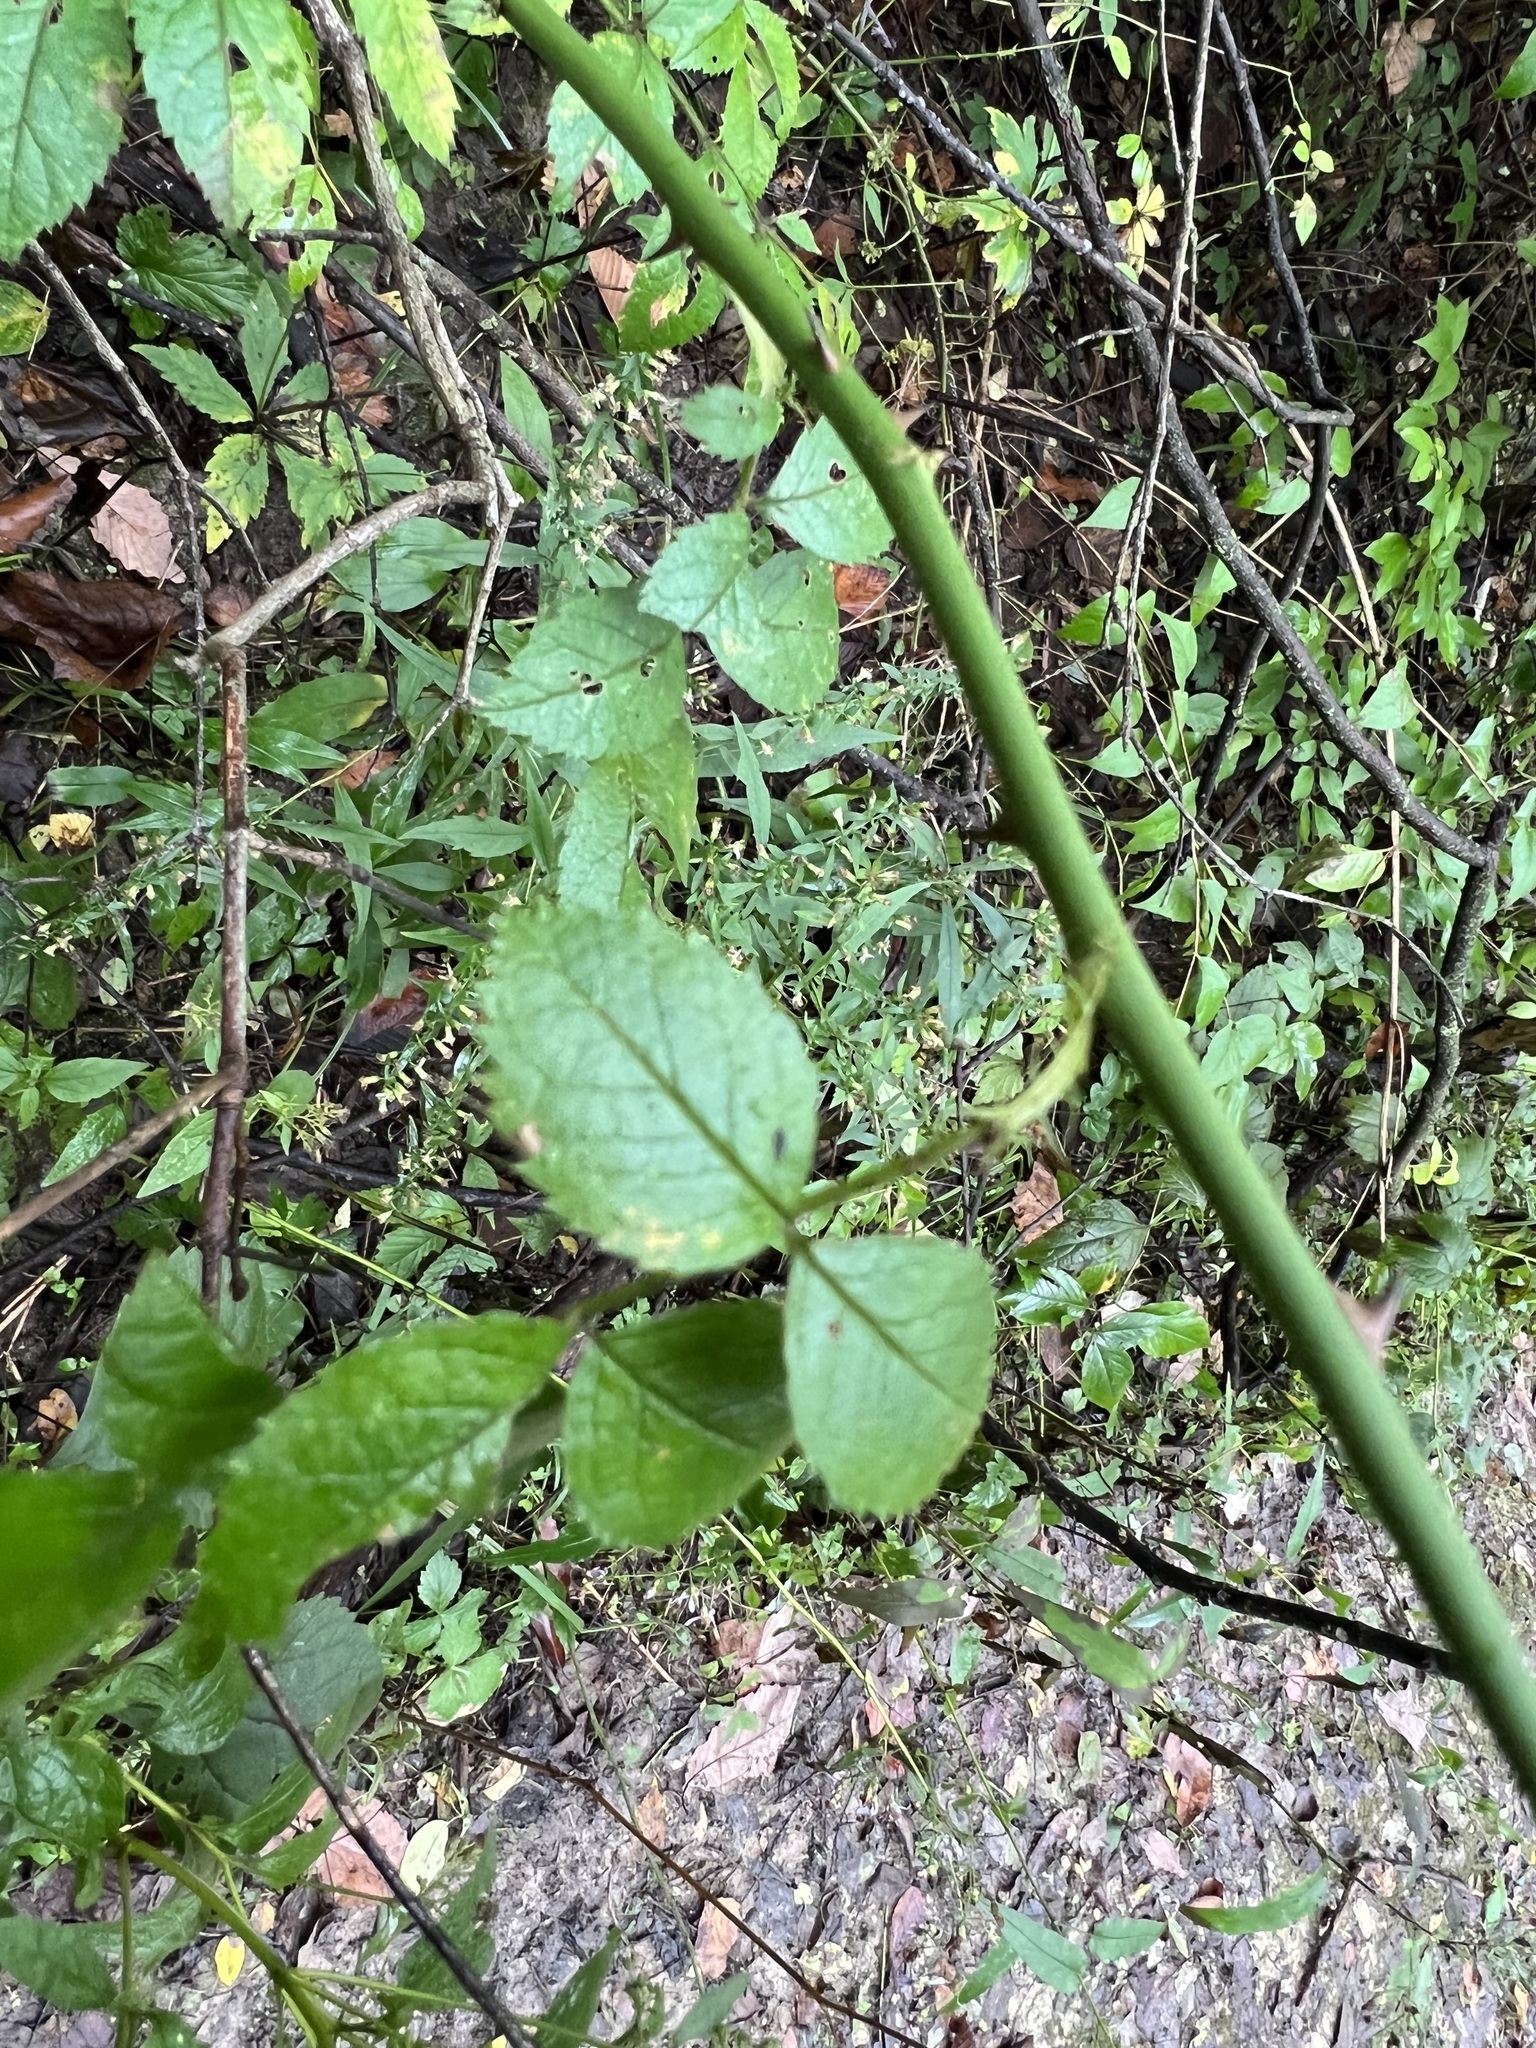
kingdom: Plantae
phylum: Tracheophyta
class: Magnoliopsida
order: Rosales
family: Rosaceae
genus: Rosa
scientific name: Rosa multiflora
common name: Multiflora rose
